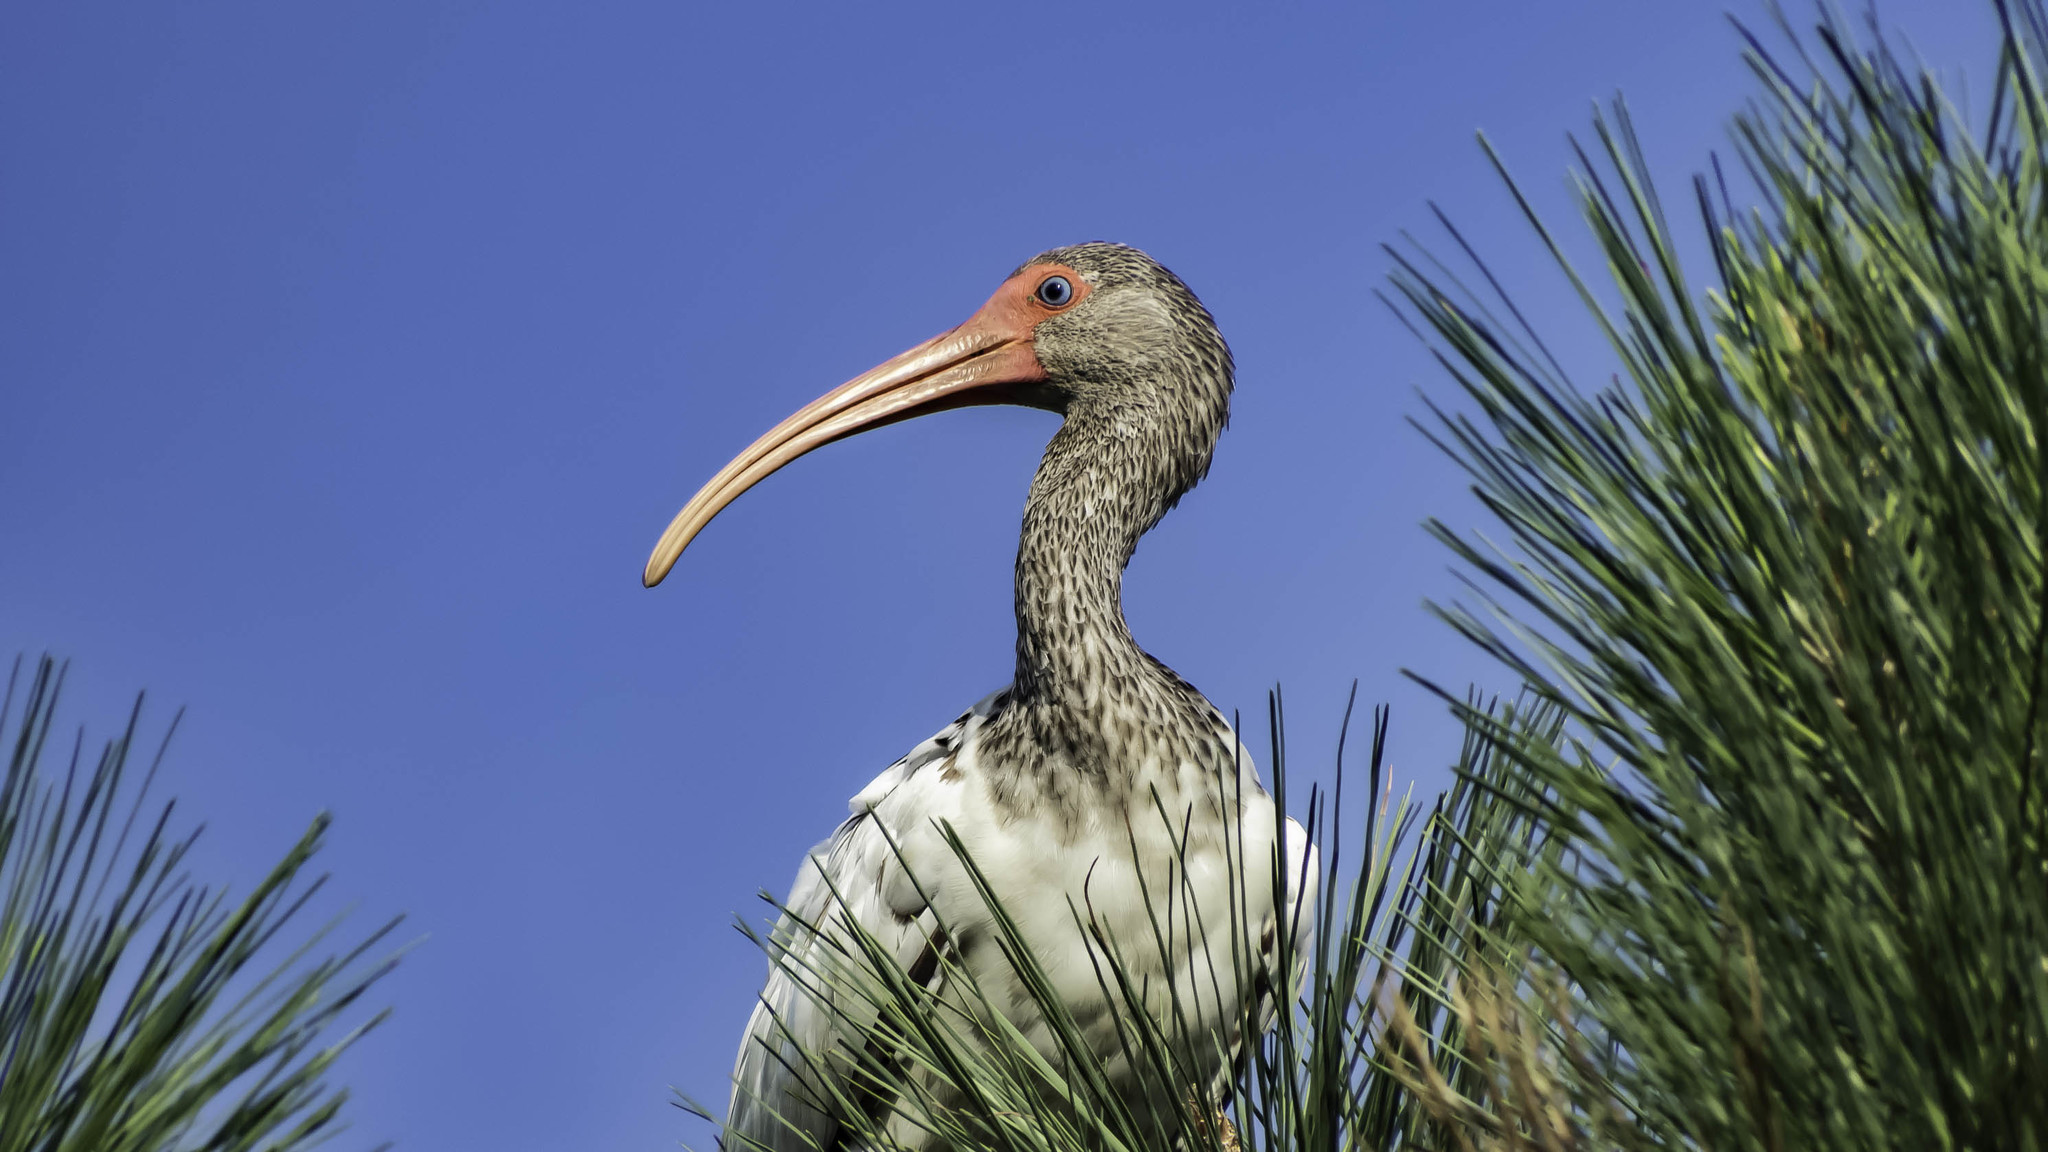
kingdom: Animalia
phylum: Chordata
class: Aves
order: Pelecaniformes
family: Threskiornithidae
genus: Eudocimus
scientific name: Eudocimus albus
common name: White ibis
